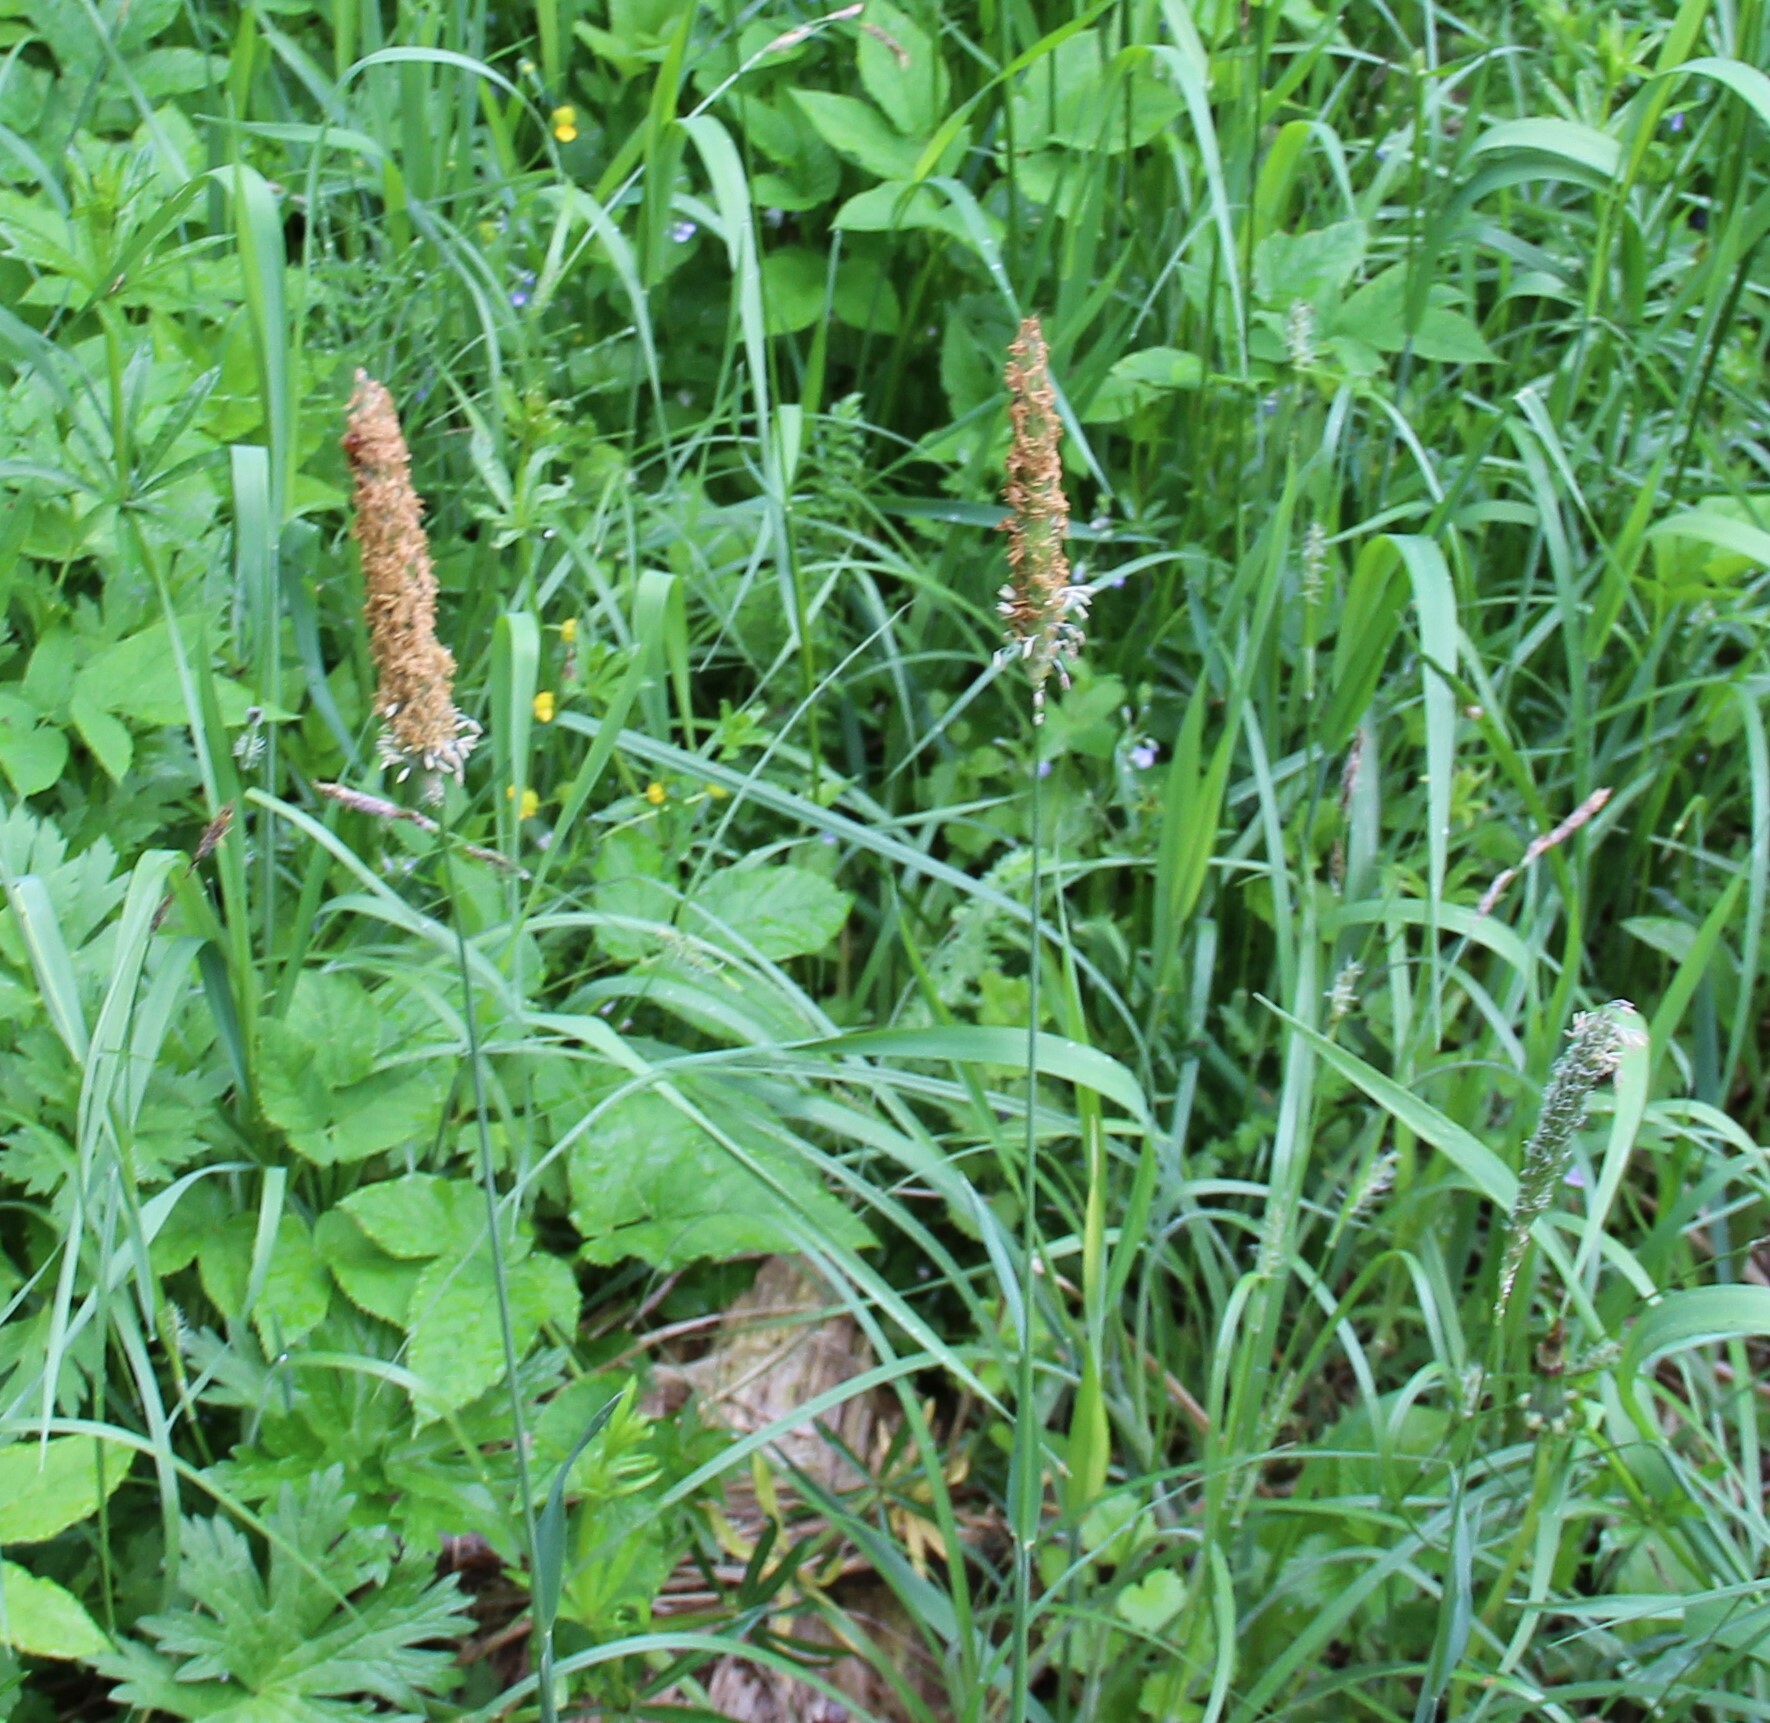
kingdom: Plantae
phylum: Tracheophyta
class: Liliopsida
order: Poales
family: Poaceae
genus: Alopecurus
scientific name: Alopecurus pratensis
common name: Meadow foxtail
